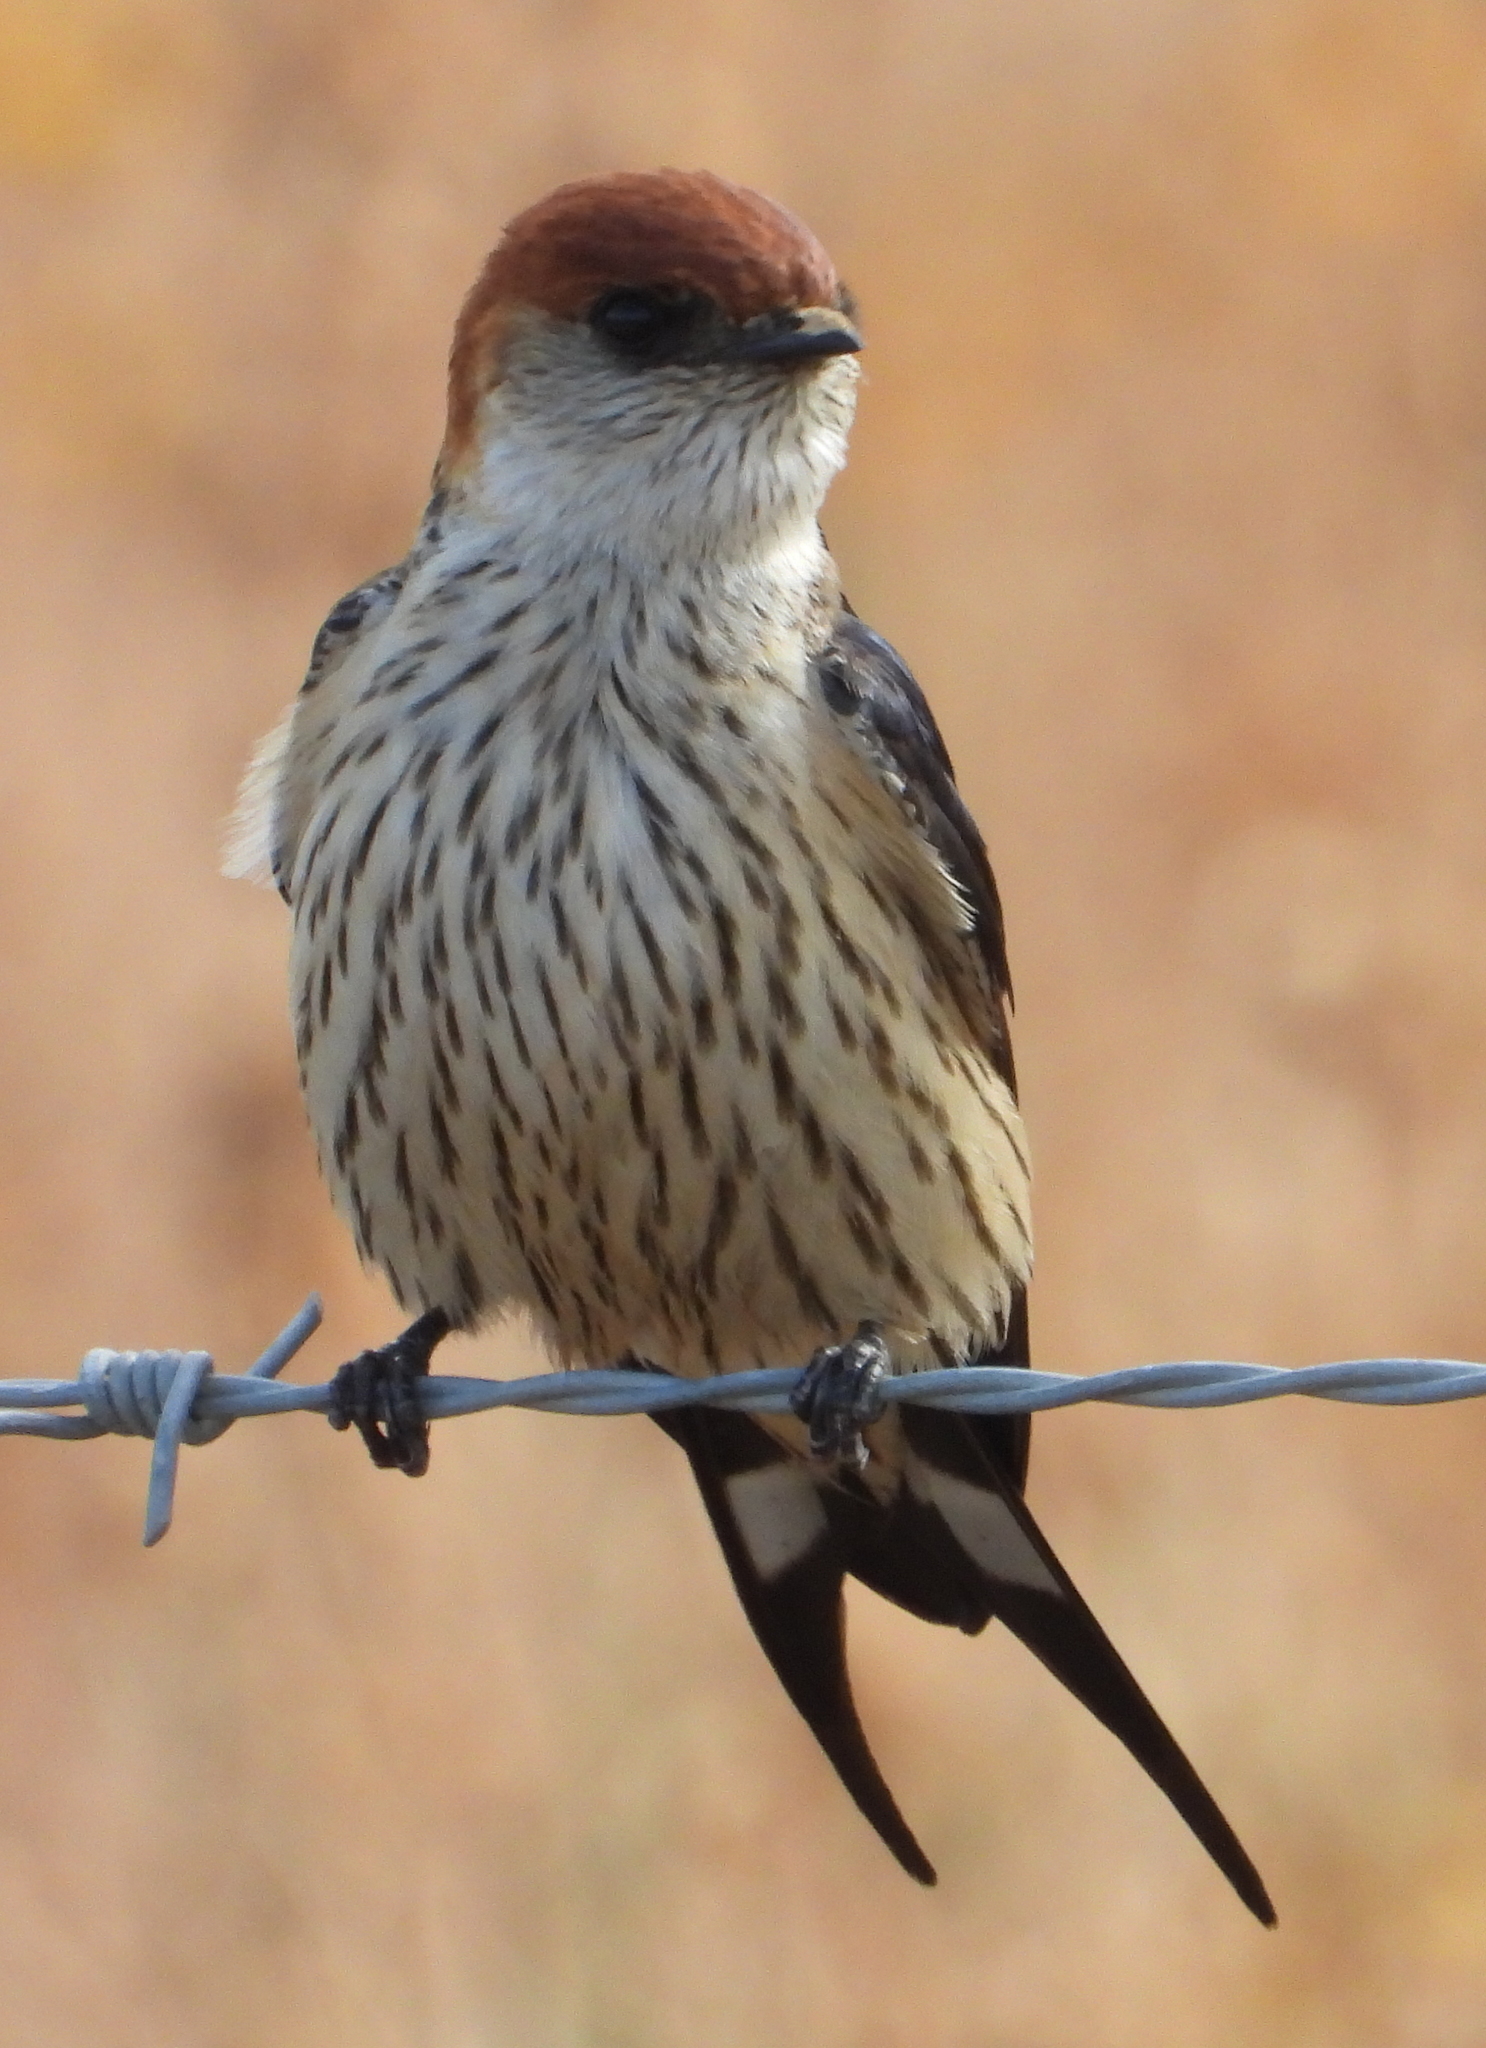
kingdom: Animalia
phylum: Chordata
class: Aves
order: Passeriformes
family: Hirundinidae
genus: Cecropis
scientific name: Cecropis cucullata
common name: Greater striped-swallow
